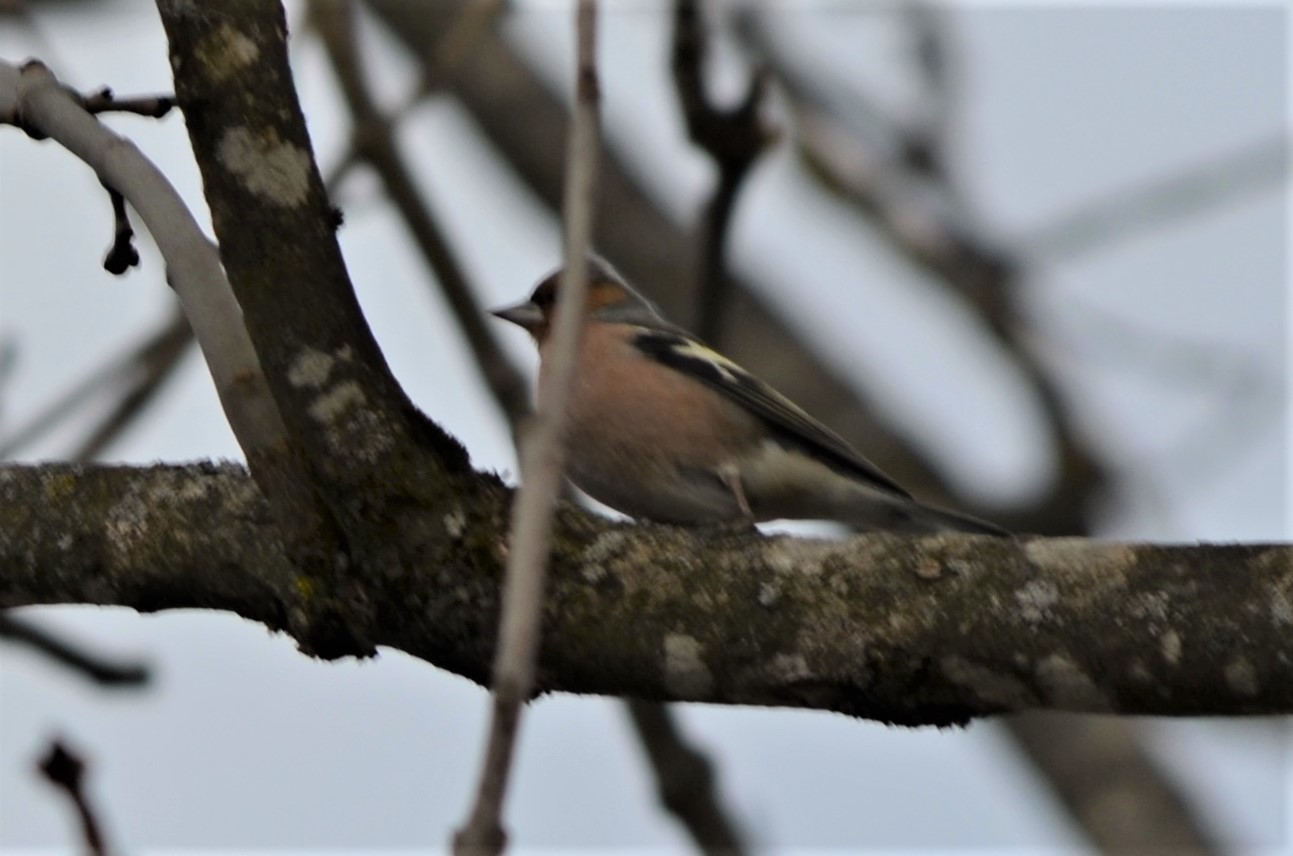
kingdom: Animalia
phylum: Chordata
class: Aves
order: Passeriformes
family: Fringillidae
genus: Fringilla
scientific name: Fringilla coelebs
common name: Common chaffinch
